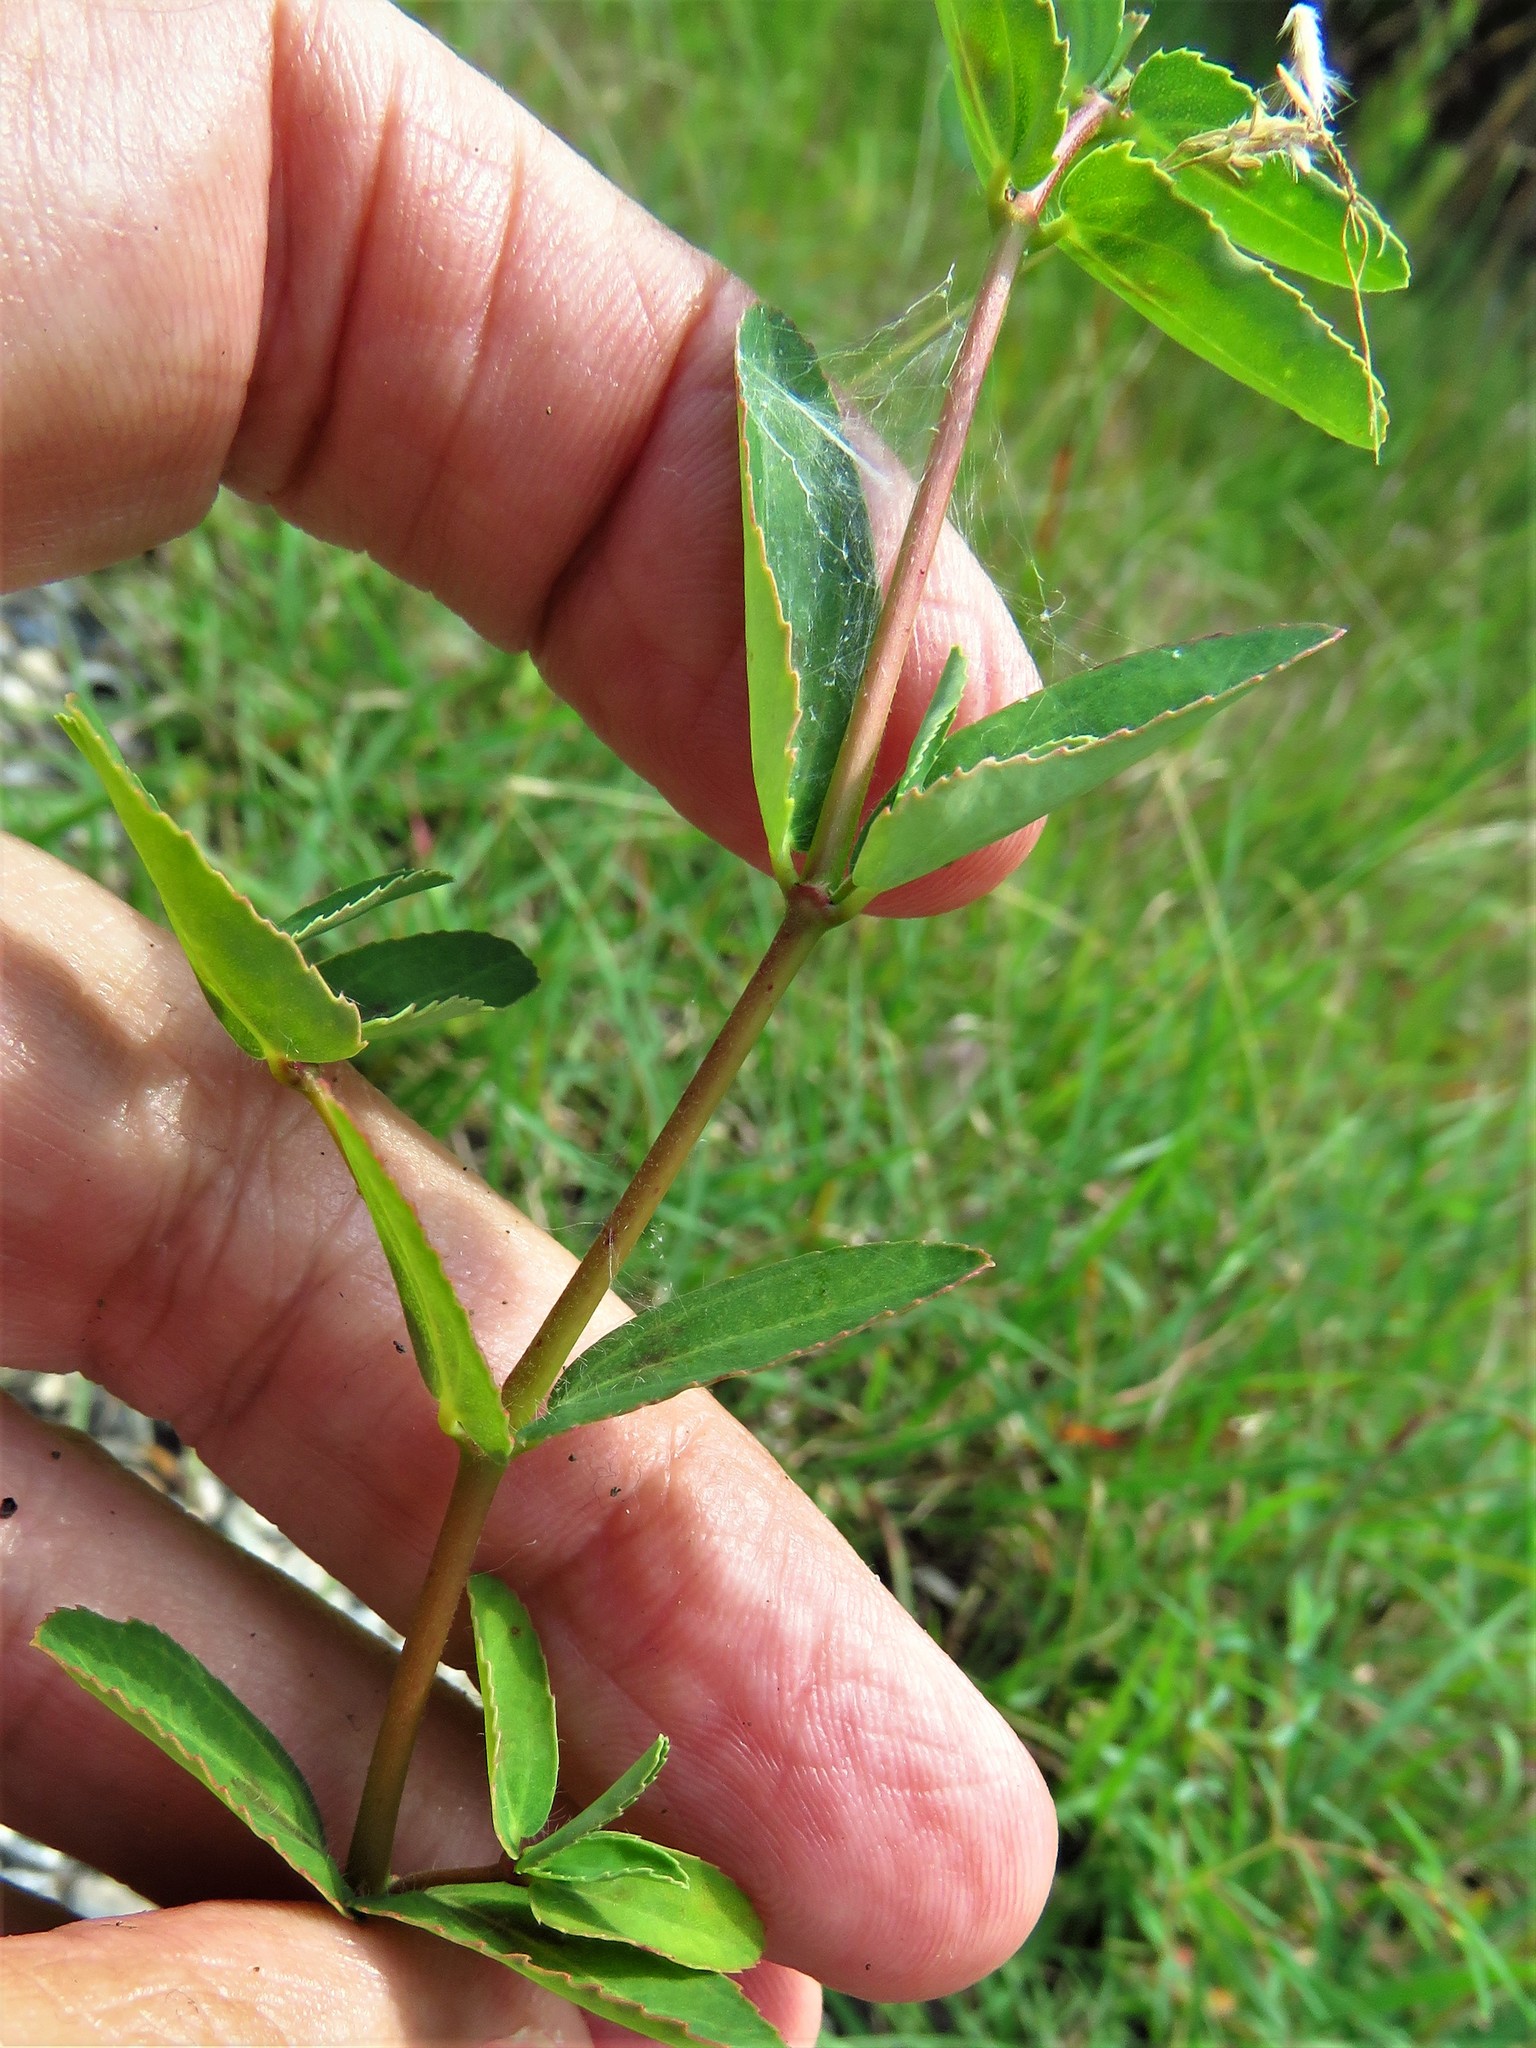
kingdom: Plantae
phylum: Tracheophyta
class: Magnoliopsida
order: Malpighiales
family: Euphorbiaceae
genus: Euphorbia
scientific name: Euphorbia nutans
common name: Eyebane
